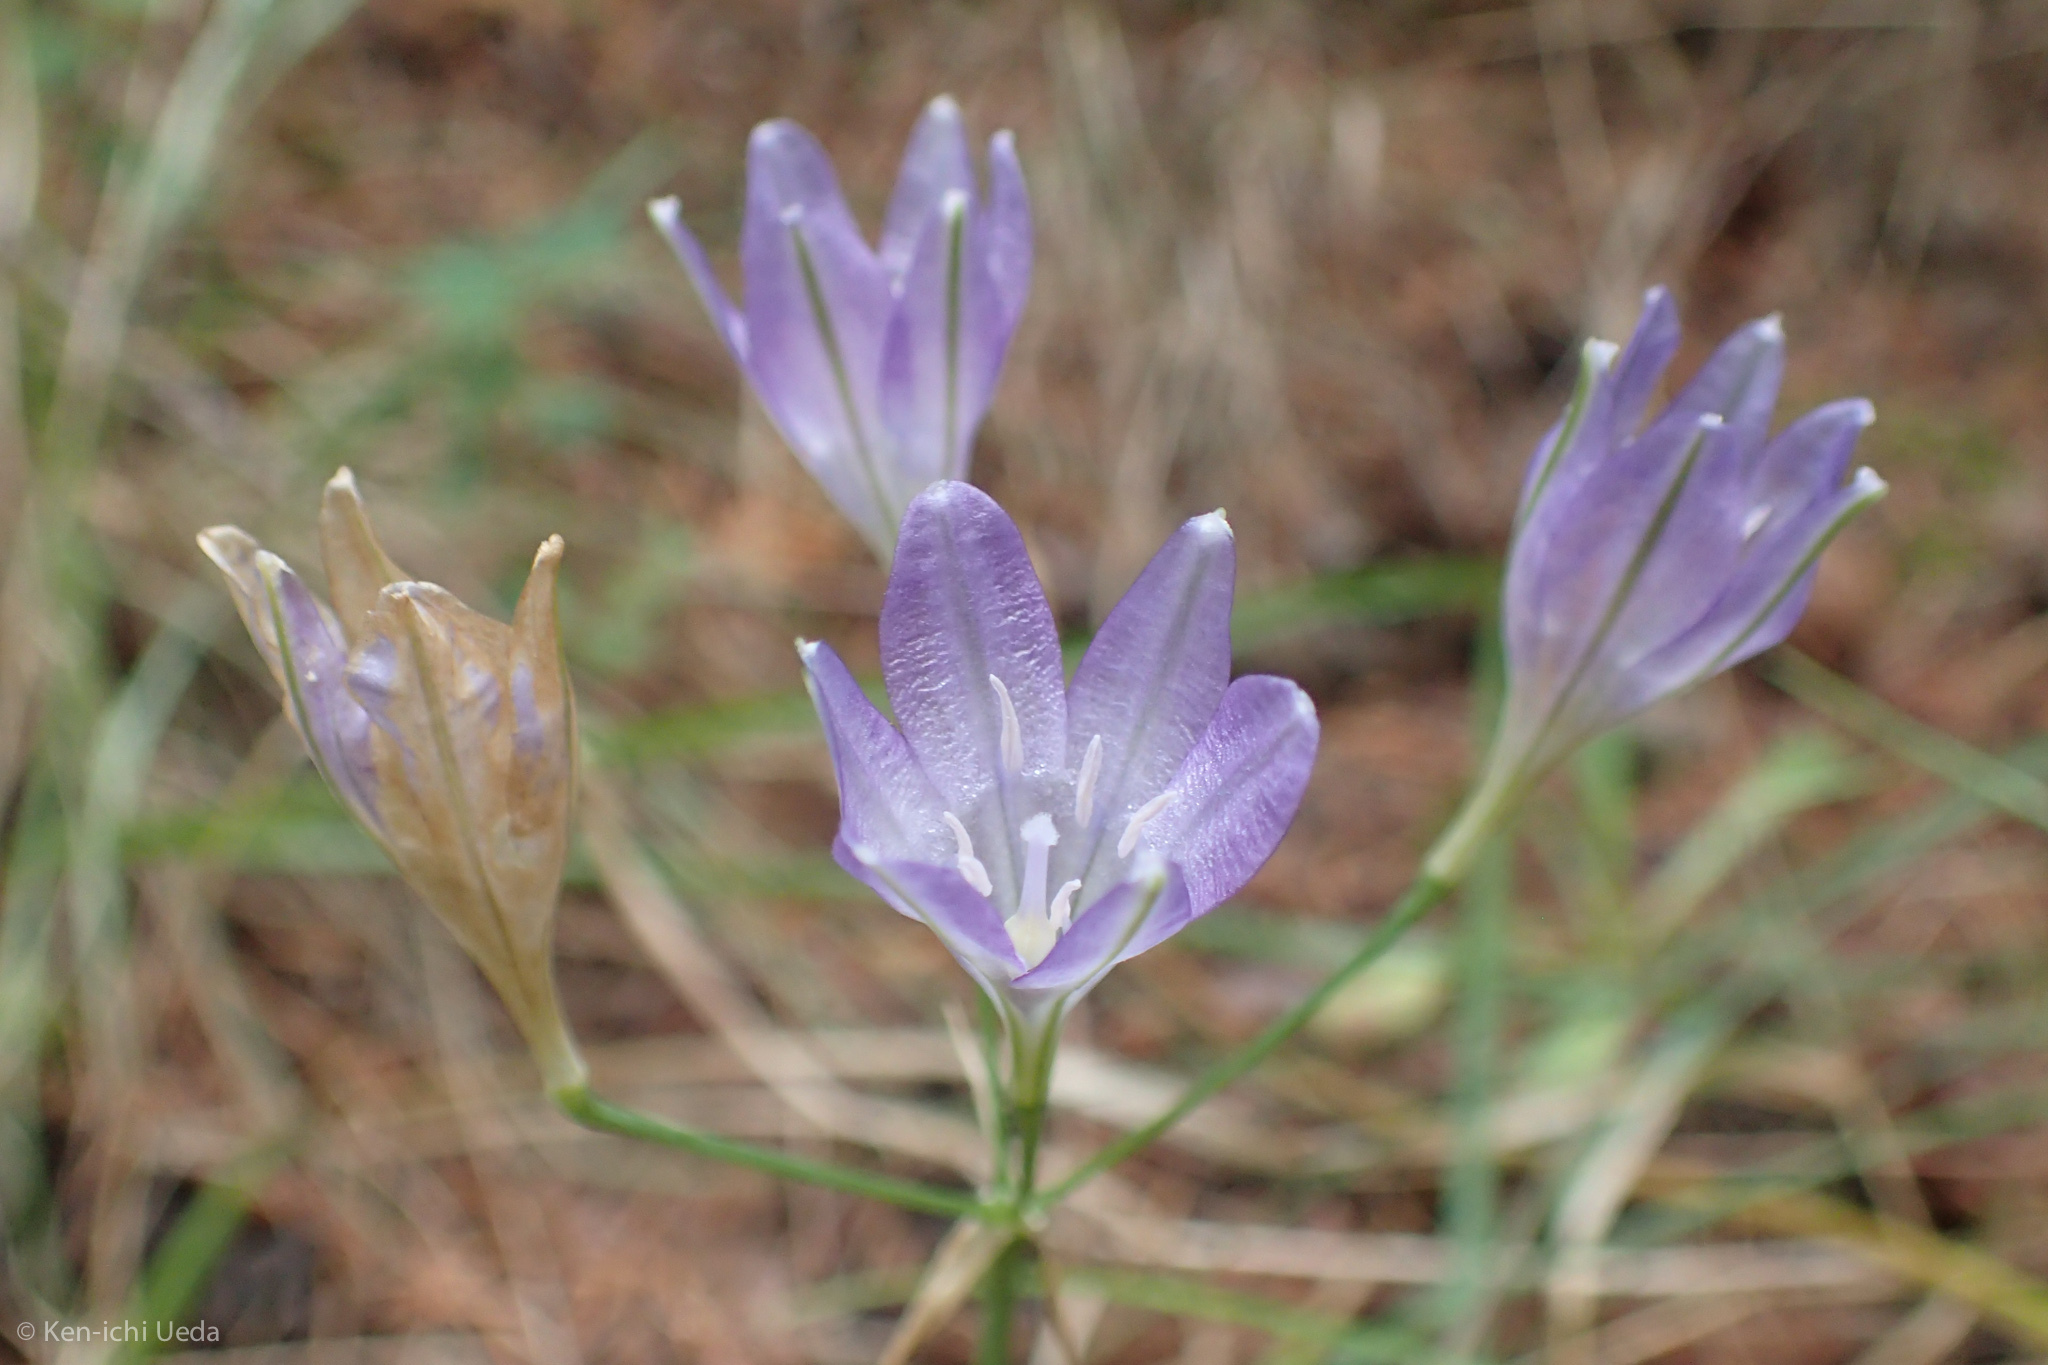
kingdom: Plantae
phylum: Tracheophyta
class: Liliopsida
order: Asparagales
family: Asparagaceae
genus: Triteleia
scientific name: Triteleia laxa
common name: Triplet-lily
